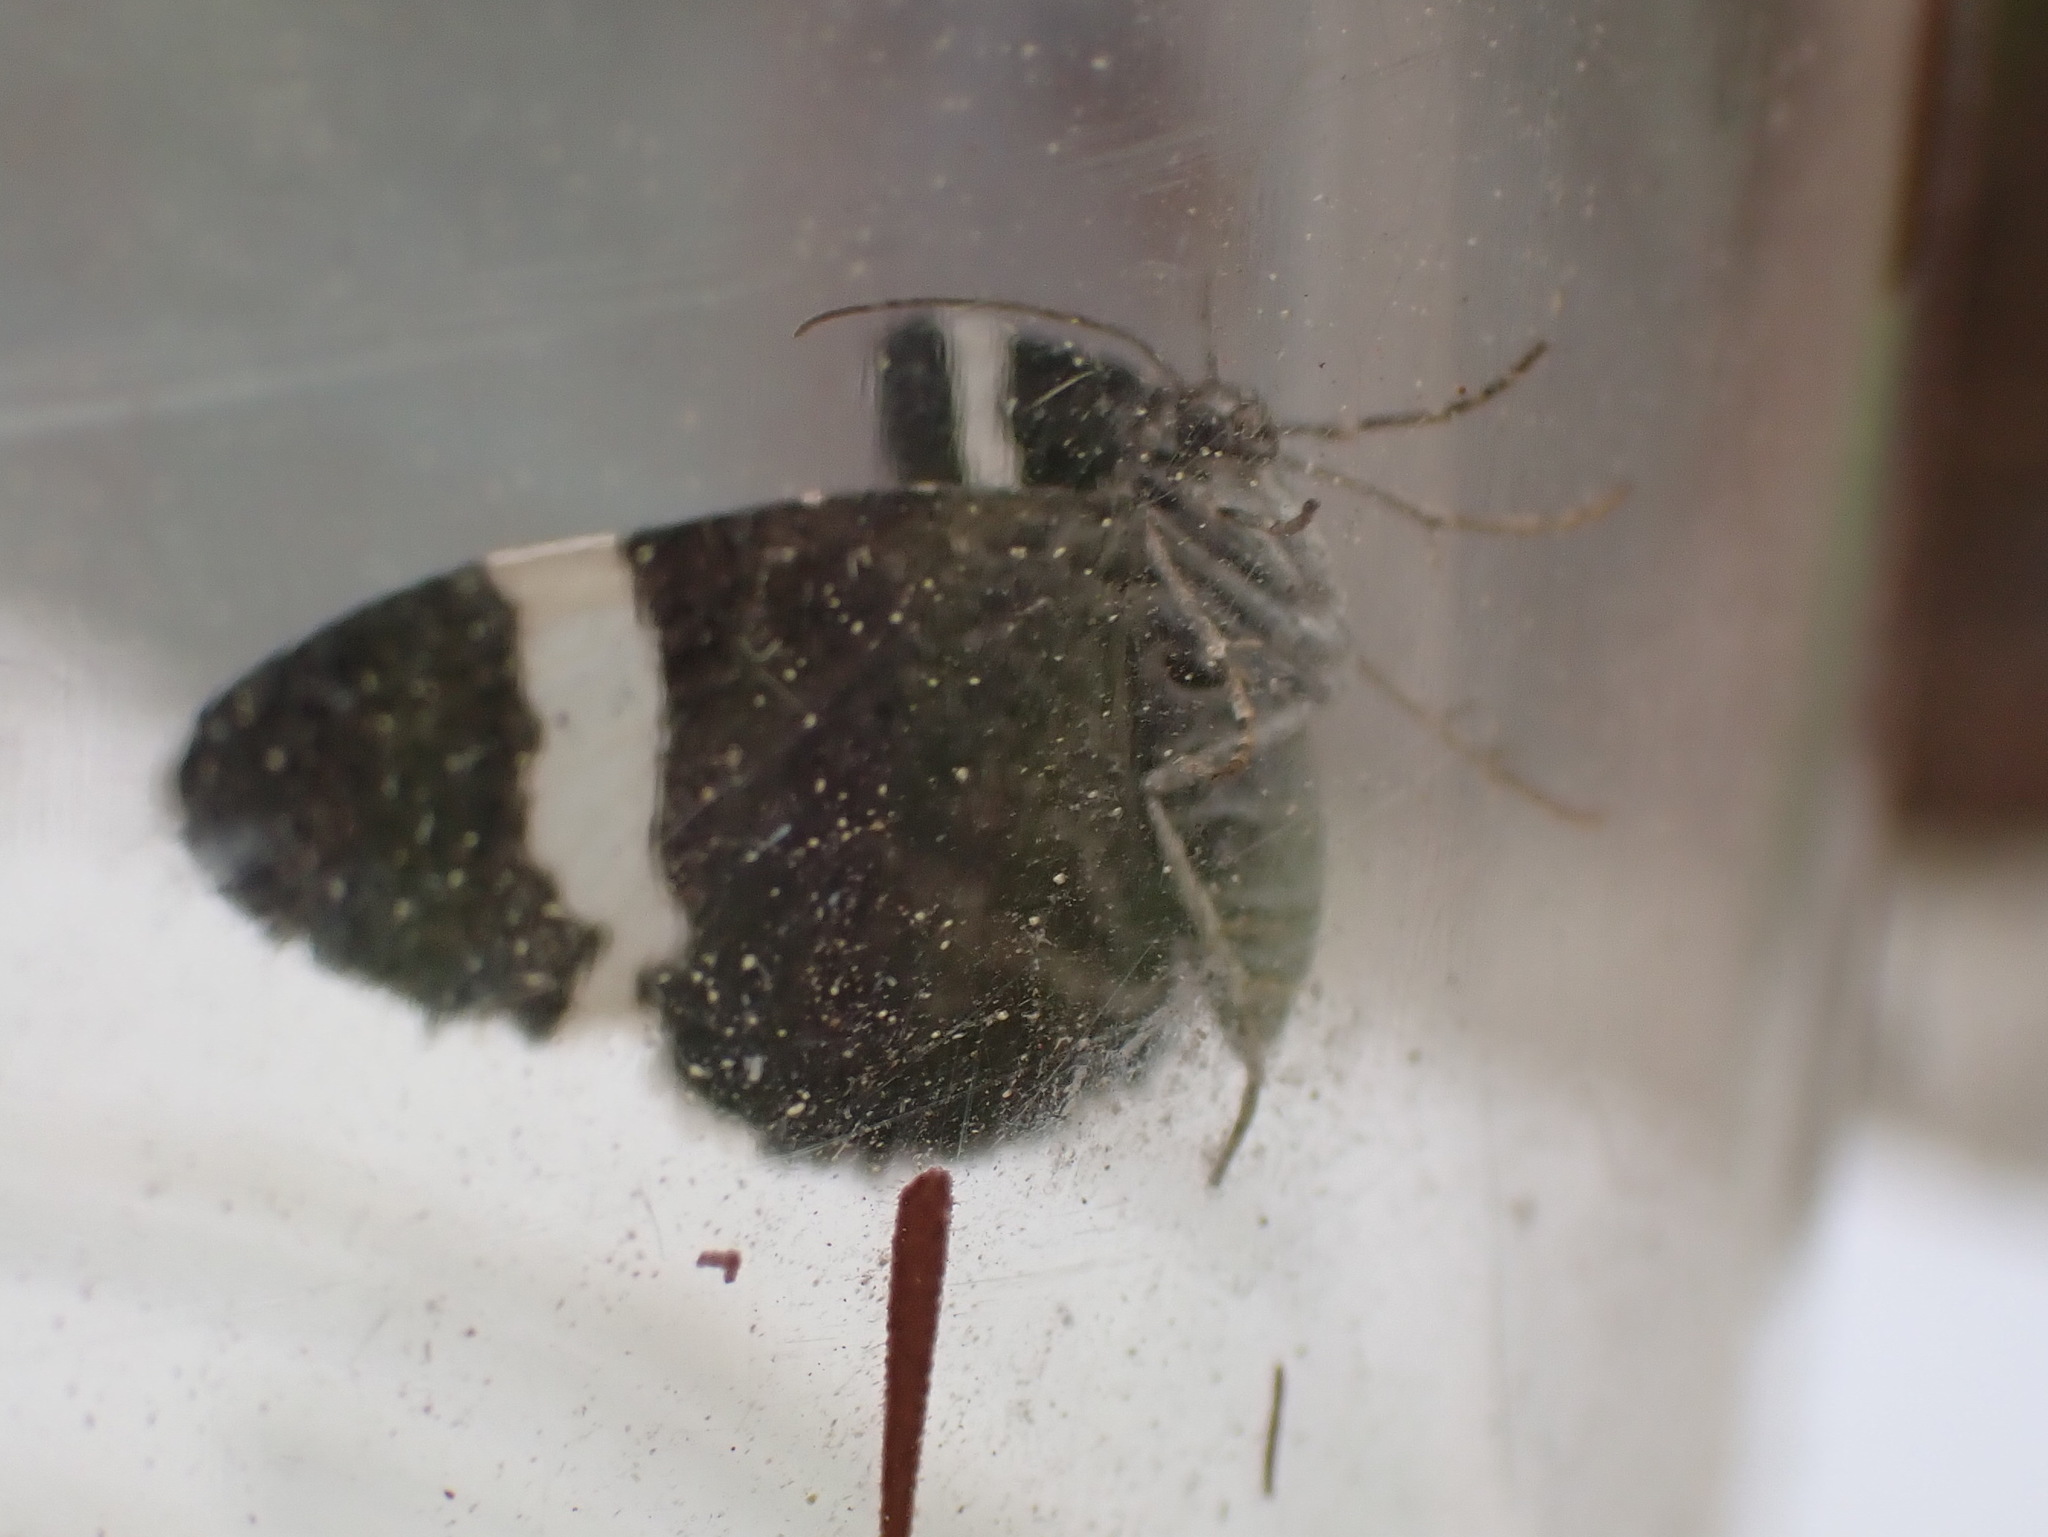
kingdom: Animalia
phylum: Arthropoda
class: Insecta
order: Lepidoptera
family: Geometridae
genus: Trichodezia
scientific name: Trichodezia albovittata
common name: White striped black
